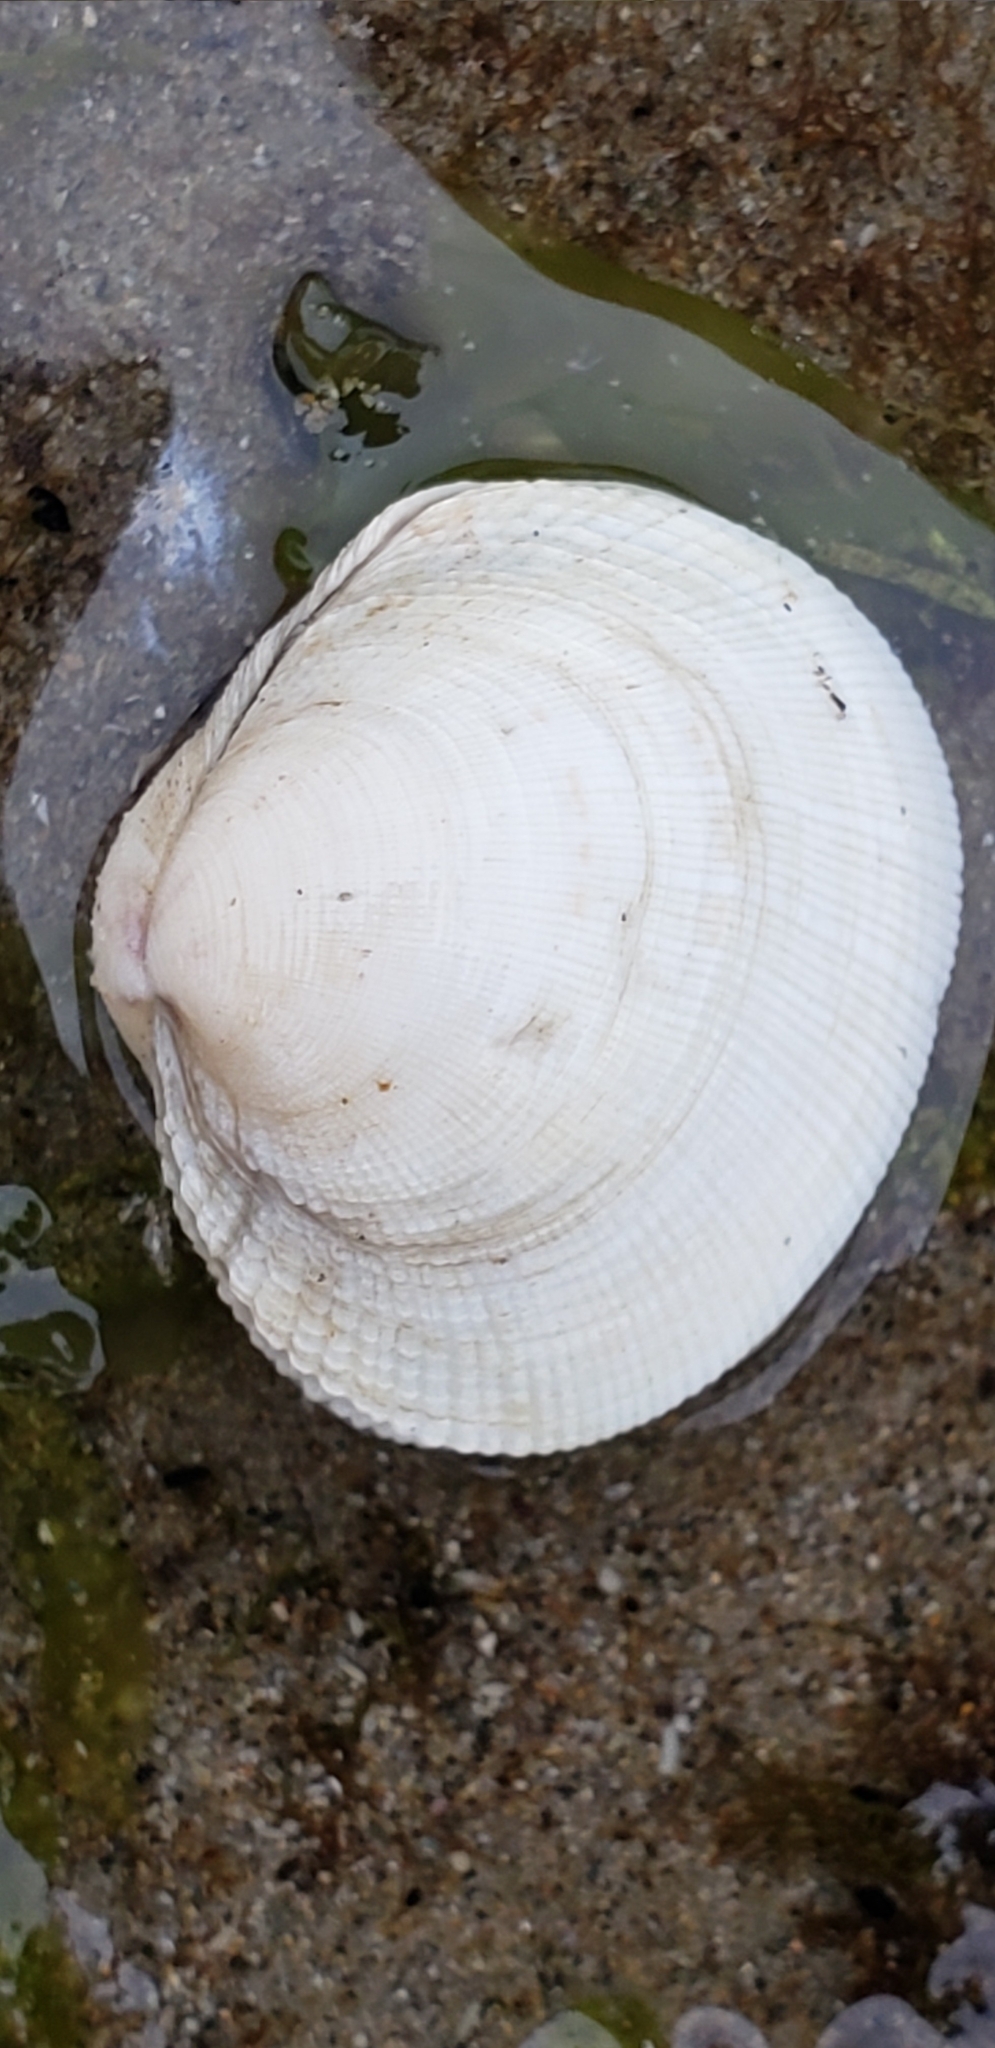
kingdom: Animalia
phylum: Mollusca
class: Bivalvia
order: Venerida
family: Veneridae
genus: Leukoma
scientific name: Leukoma staminea
